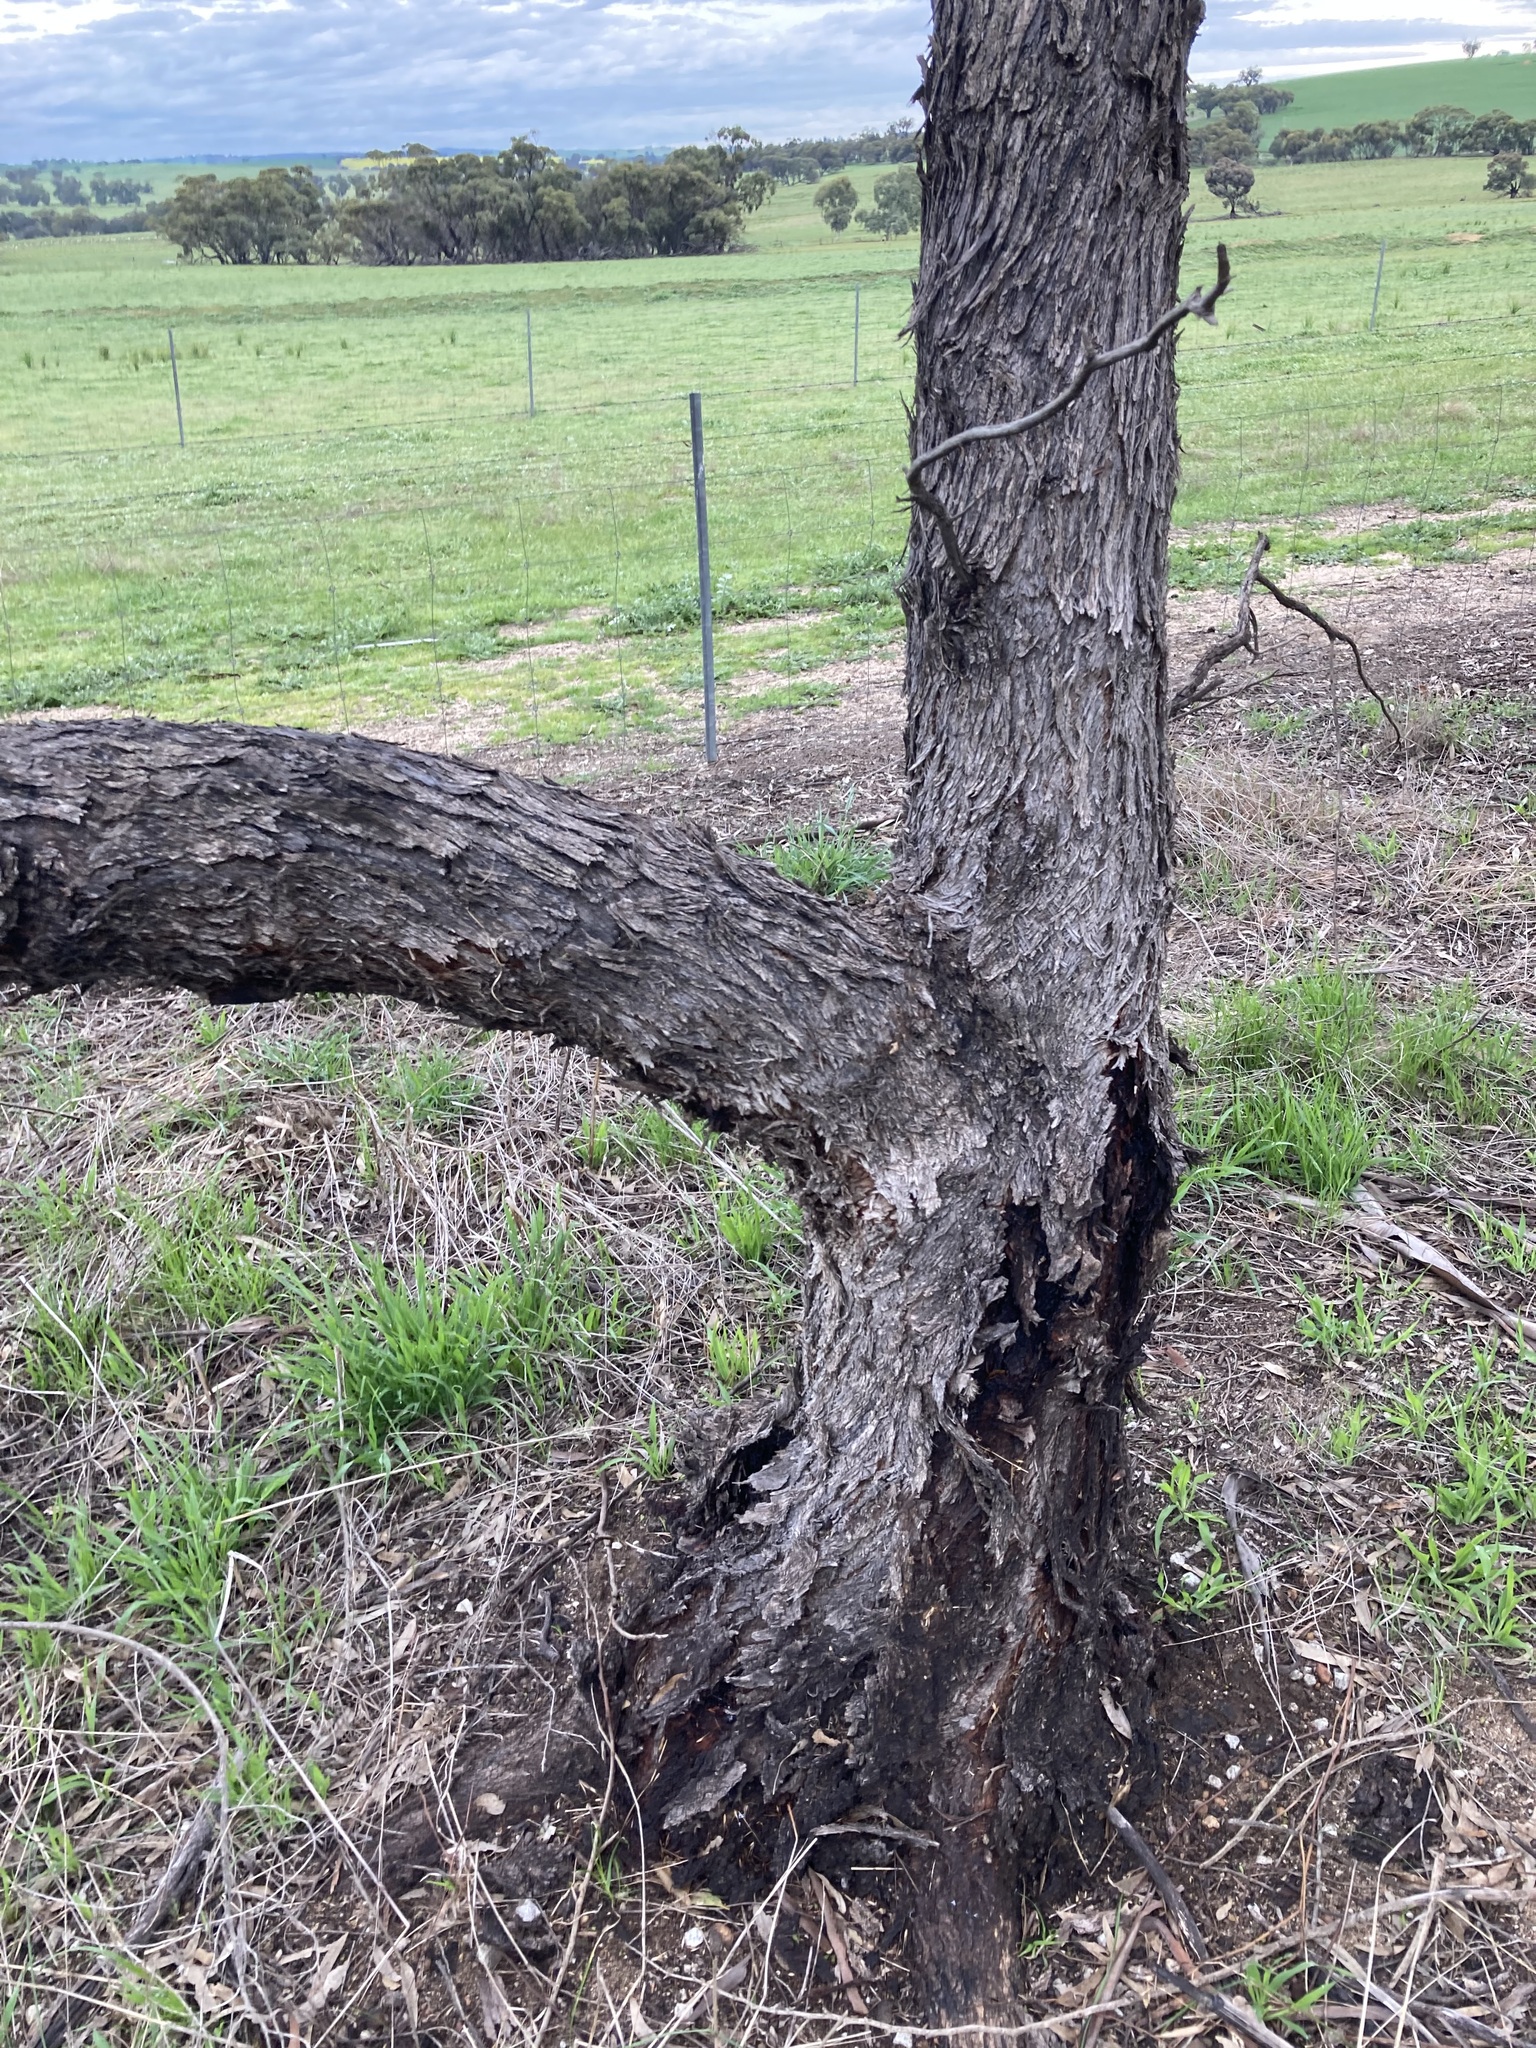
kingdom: Plantae
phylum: Tracheophyta
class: Magnoliopsida
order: Myrtales
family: Myrtaceae
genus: Eucalyptus
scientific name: Eucalyptus loxophleba
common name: York gum
